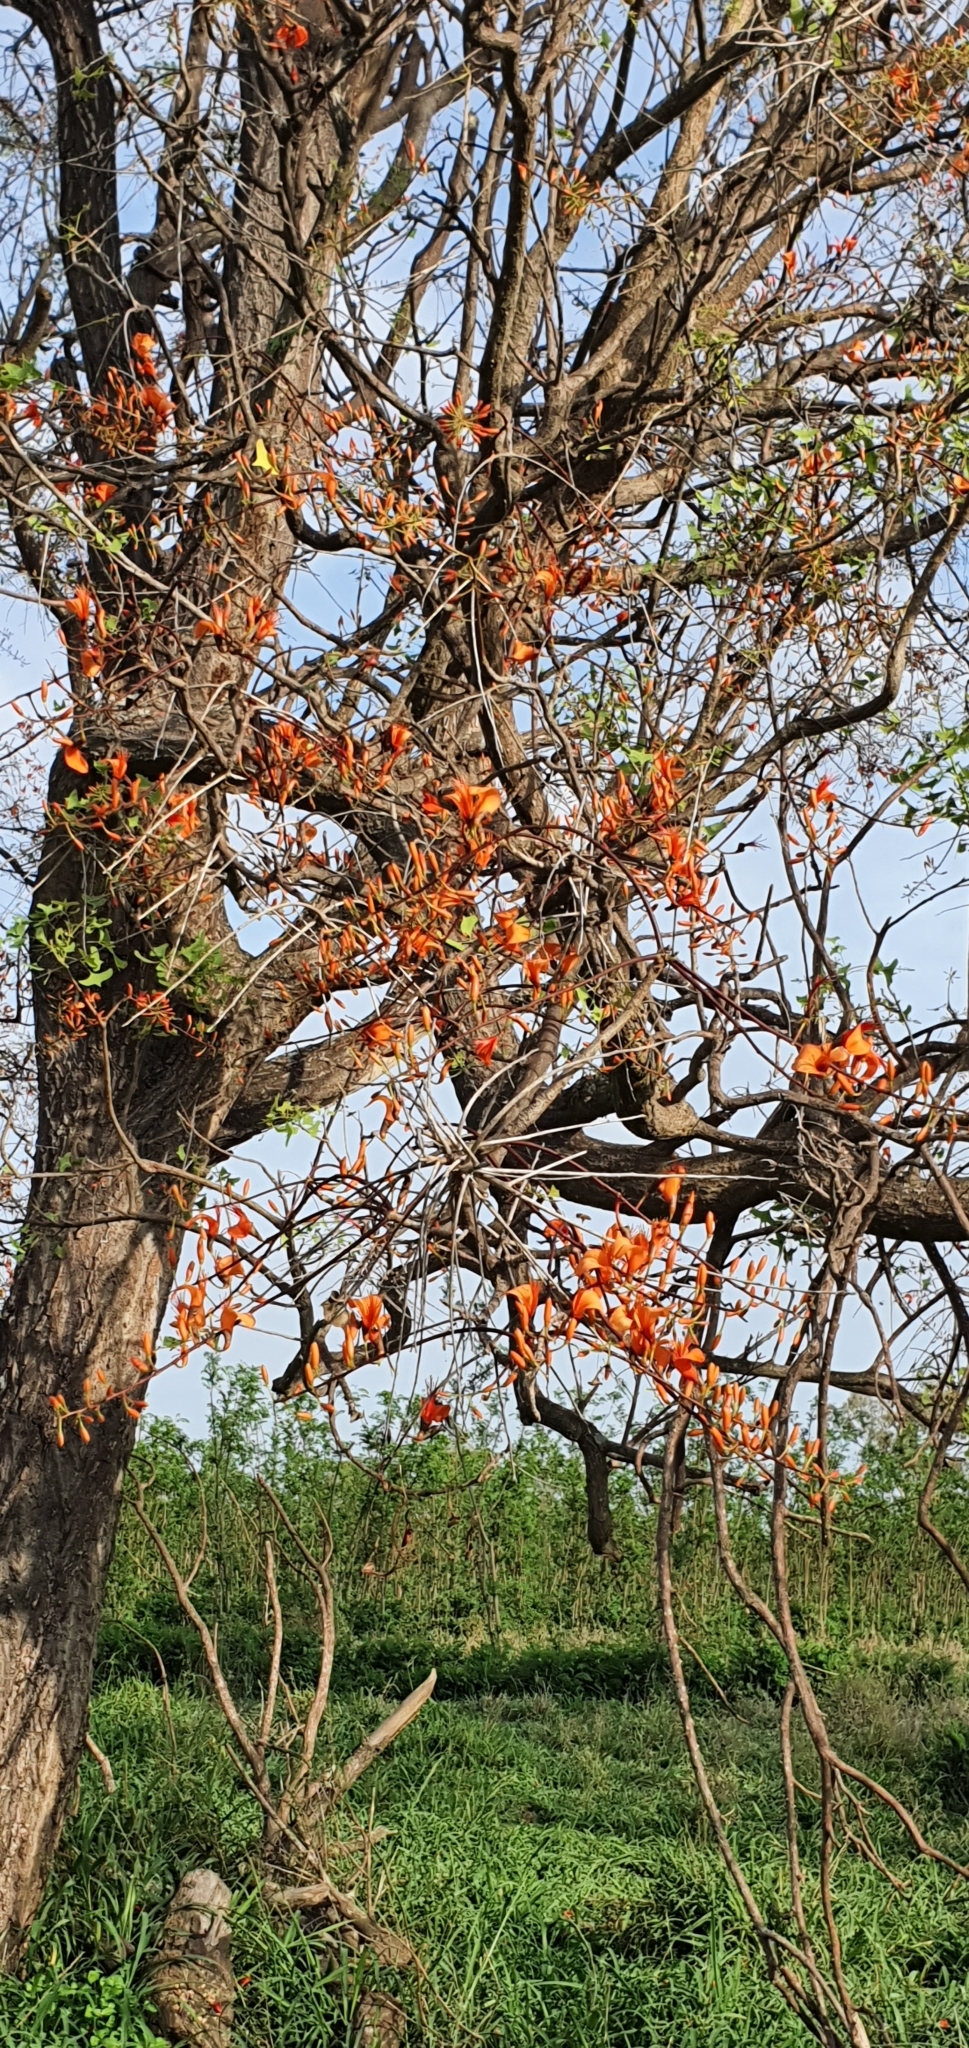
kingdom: Plantae
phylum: Tracheophyta
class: Magnoliopsida
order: Fabales
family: Fabaceae
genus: Erythrina
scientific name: Erythrina vespertilio
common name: Bat-wing coral tree
